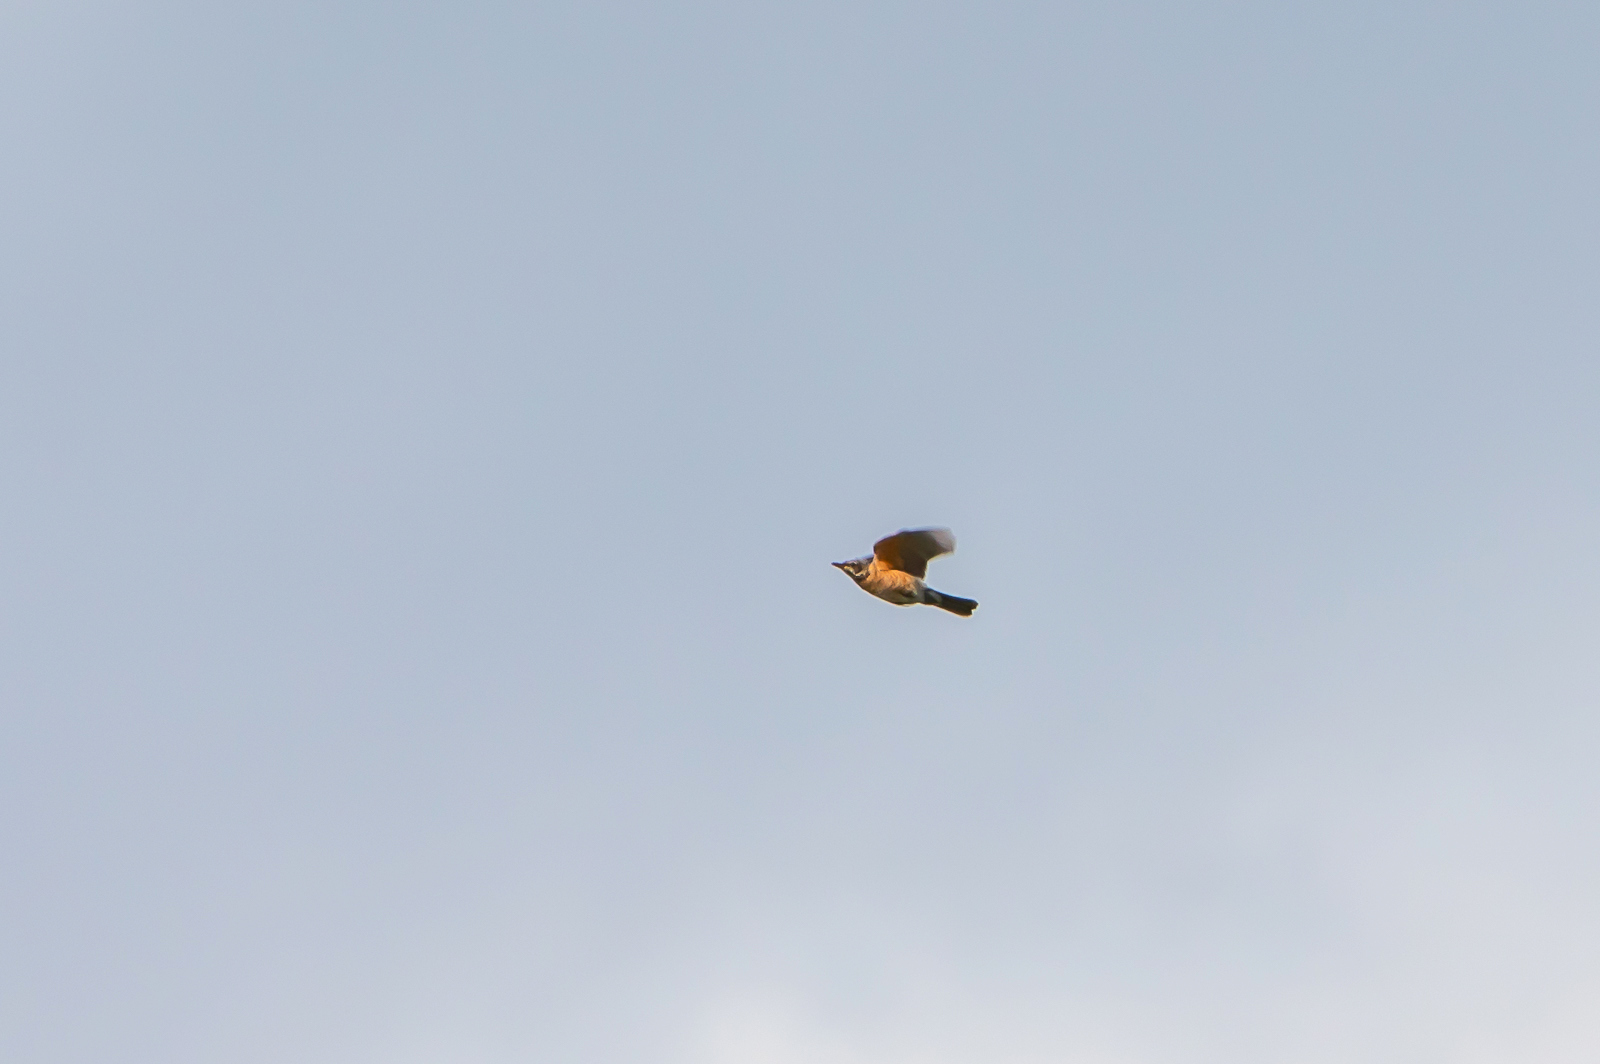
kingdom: Animalia
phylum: Chordata
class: Aves
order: Passeriformes
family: Turdidae
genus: Turdus
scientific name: Turdus migratorius
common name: American robin
